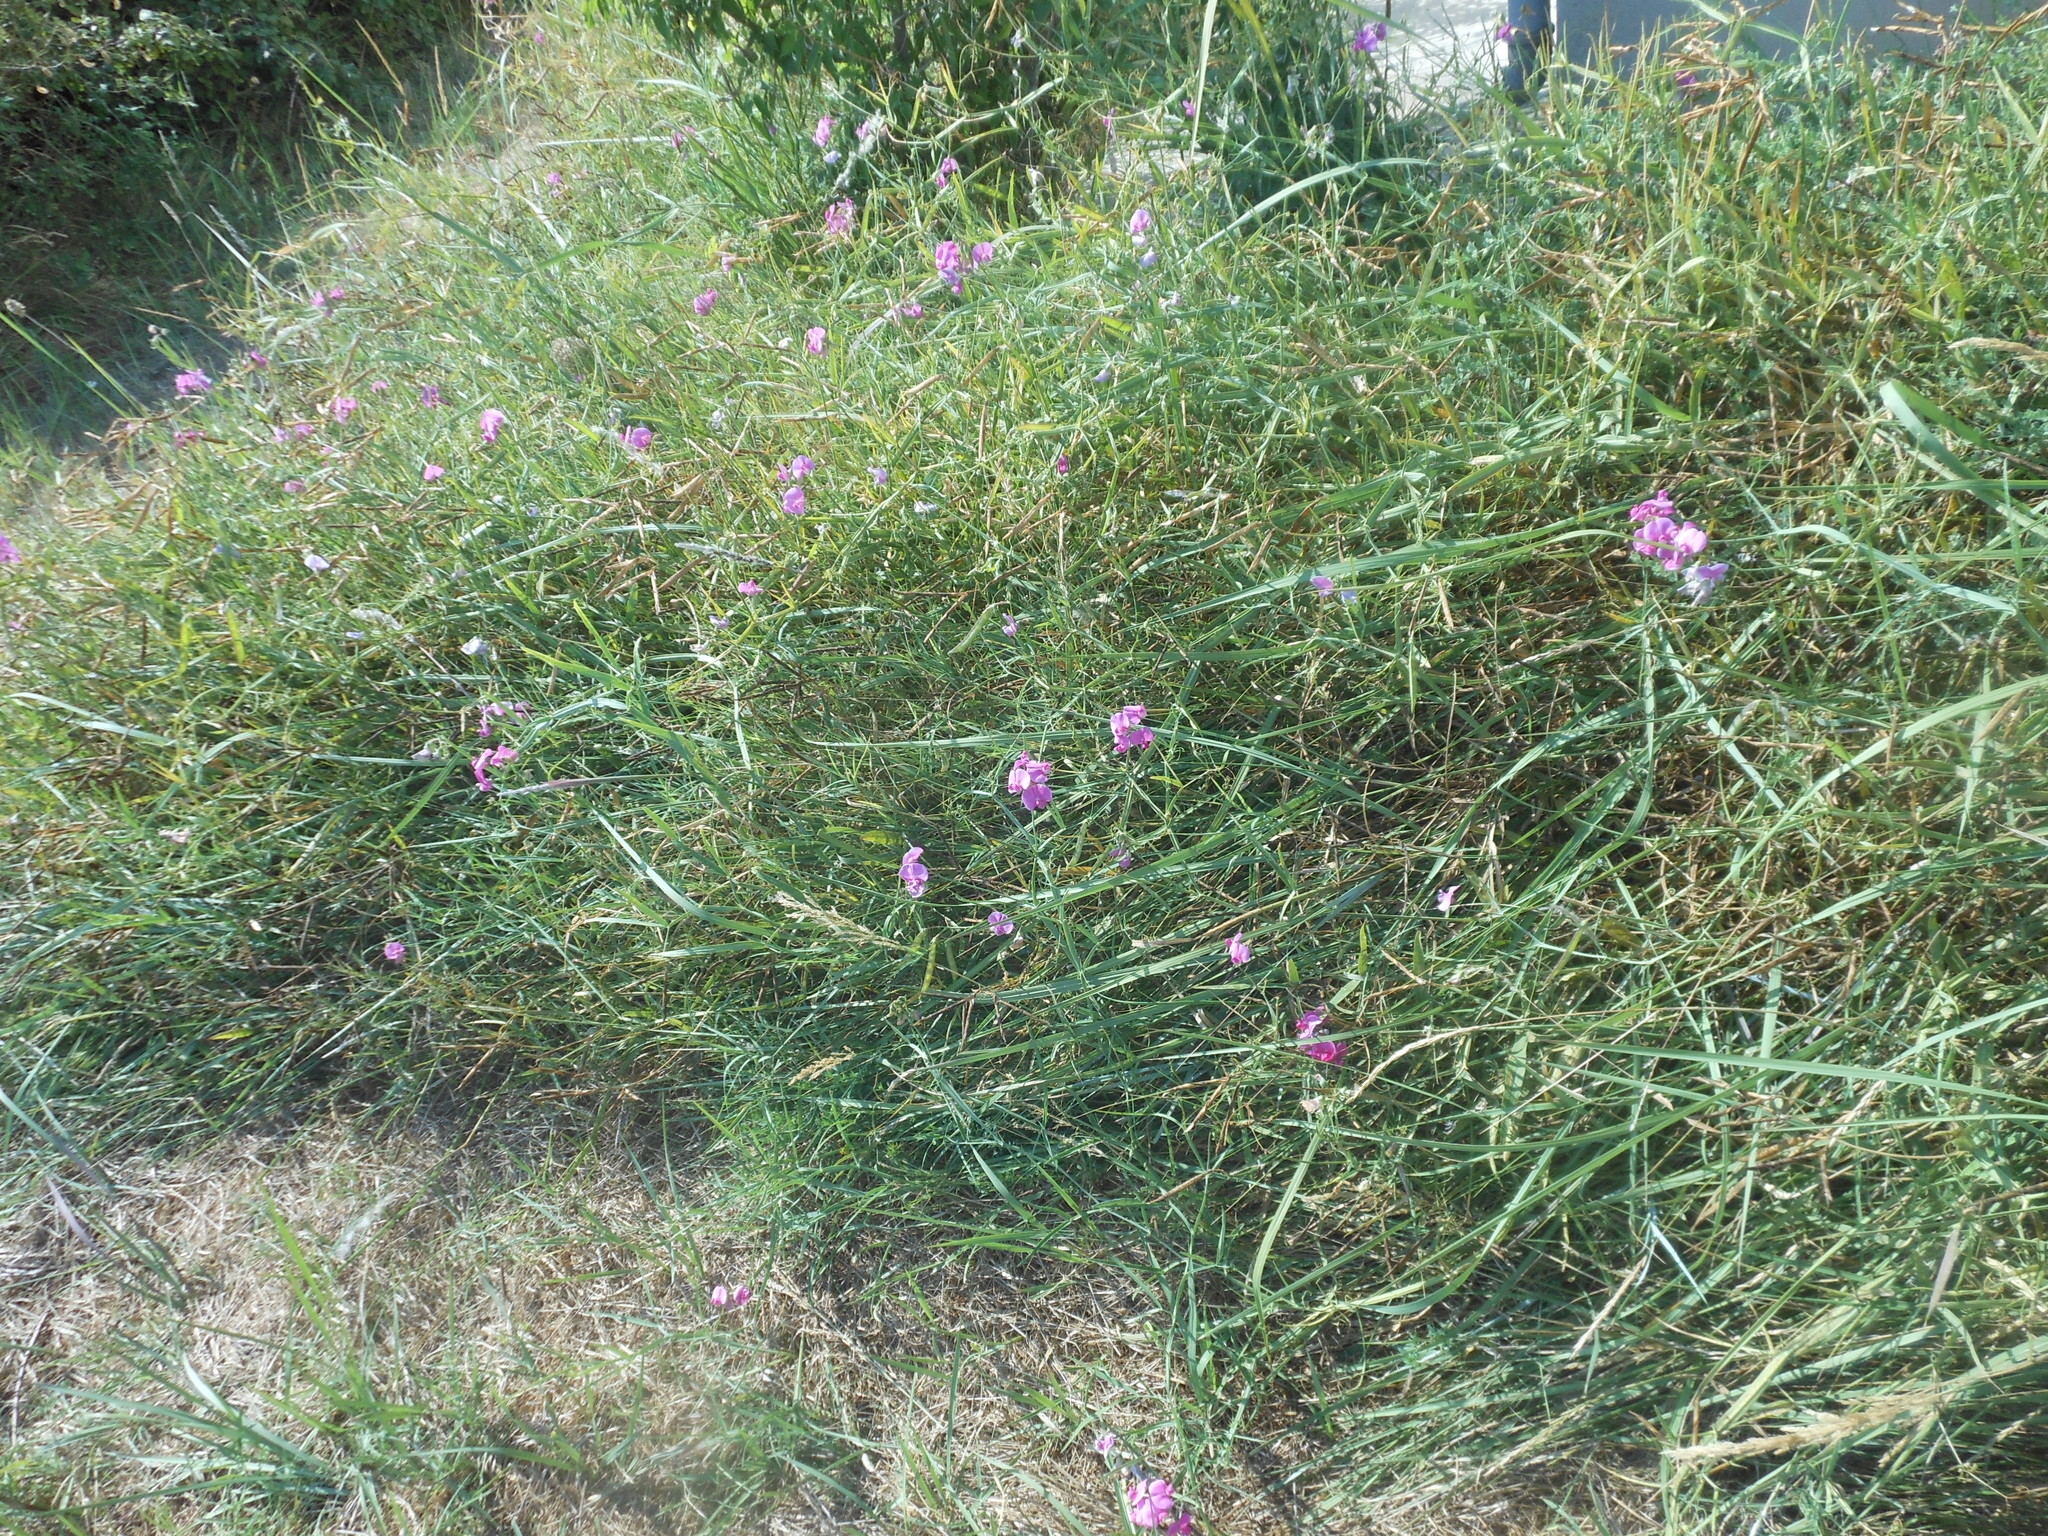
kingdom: Plantae
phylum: Tracheophyta
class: Magnoliopsida
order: Fabales
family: Fabaceae
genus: Lathyrus
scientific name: Lathyrus latifolius
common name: Perennial pea
